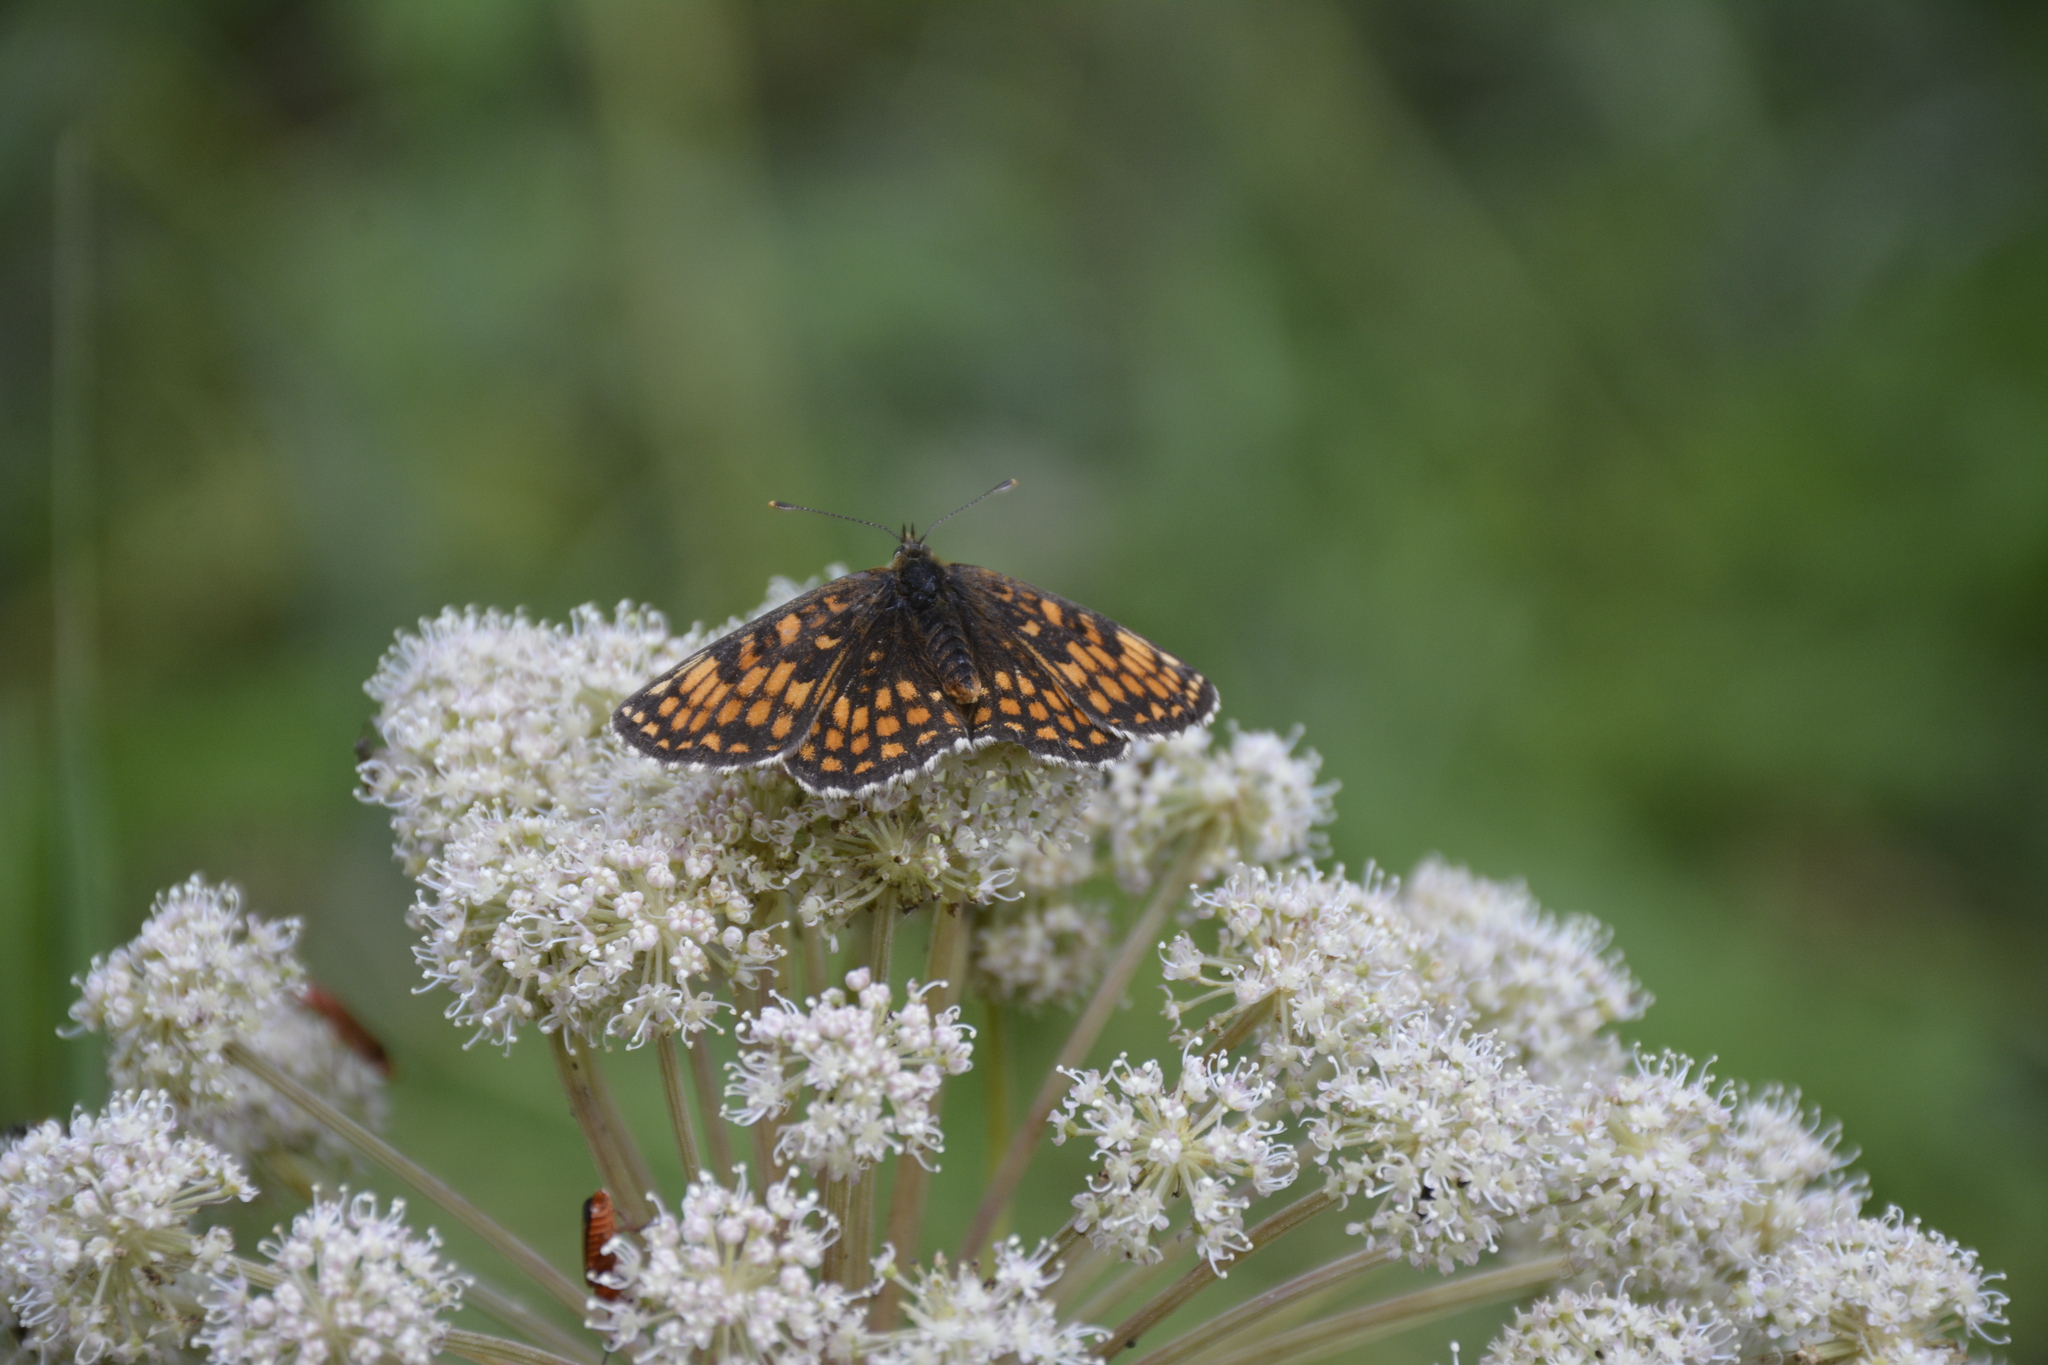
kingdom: Animalia
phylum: Arthropoda
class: Insecta
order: Lepidoptera
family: Nymphalidae
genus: Melitaea
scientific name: Melitaea athalia
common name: Heath fritillary
